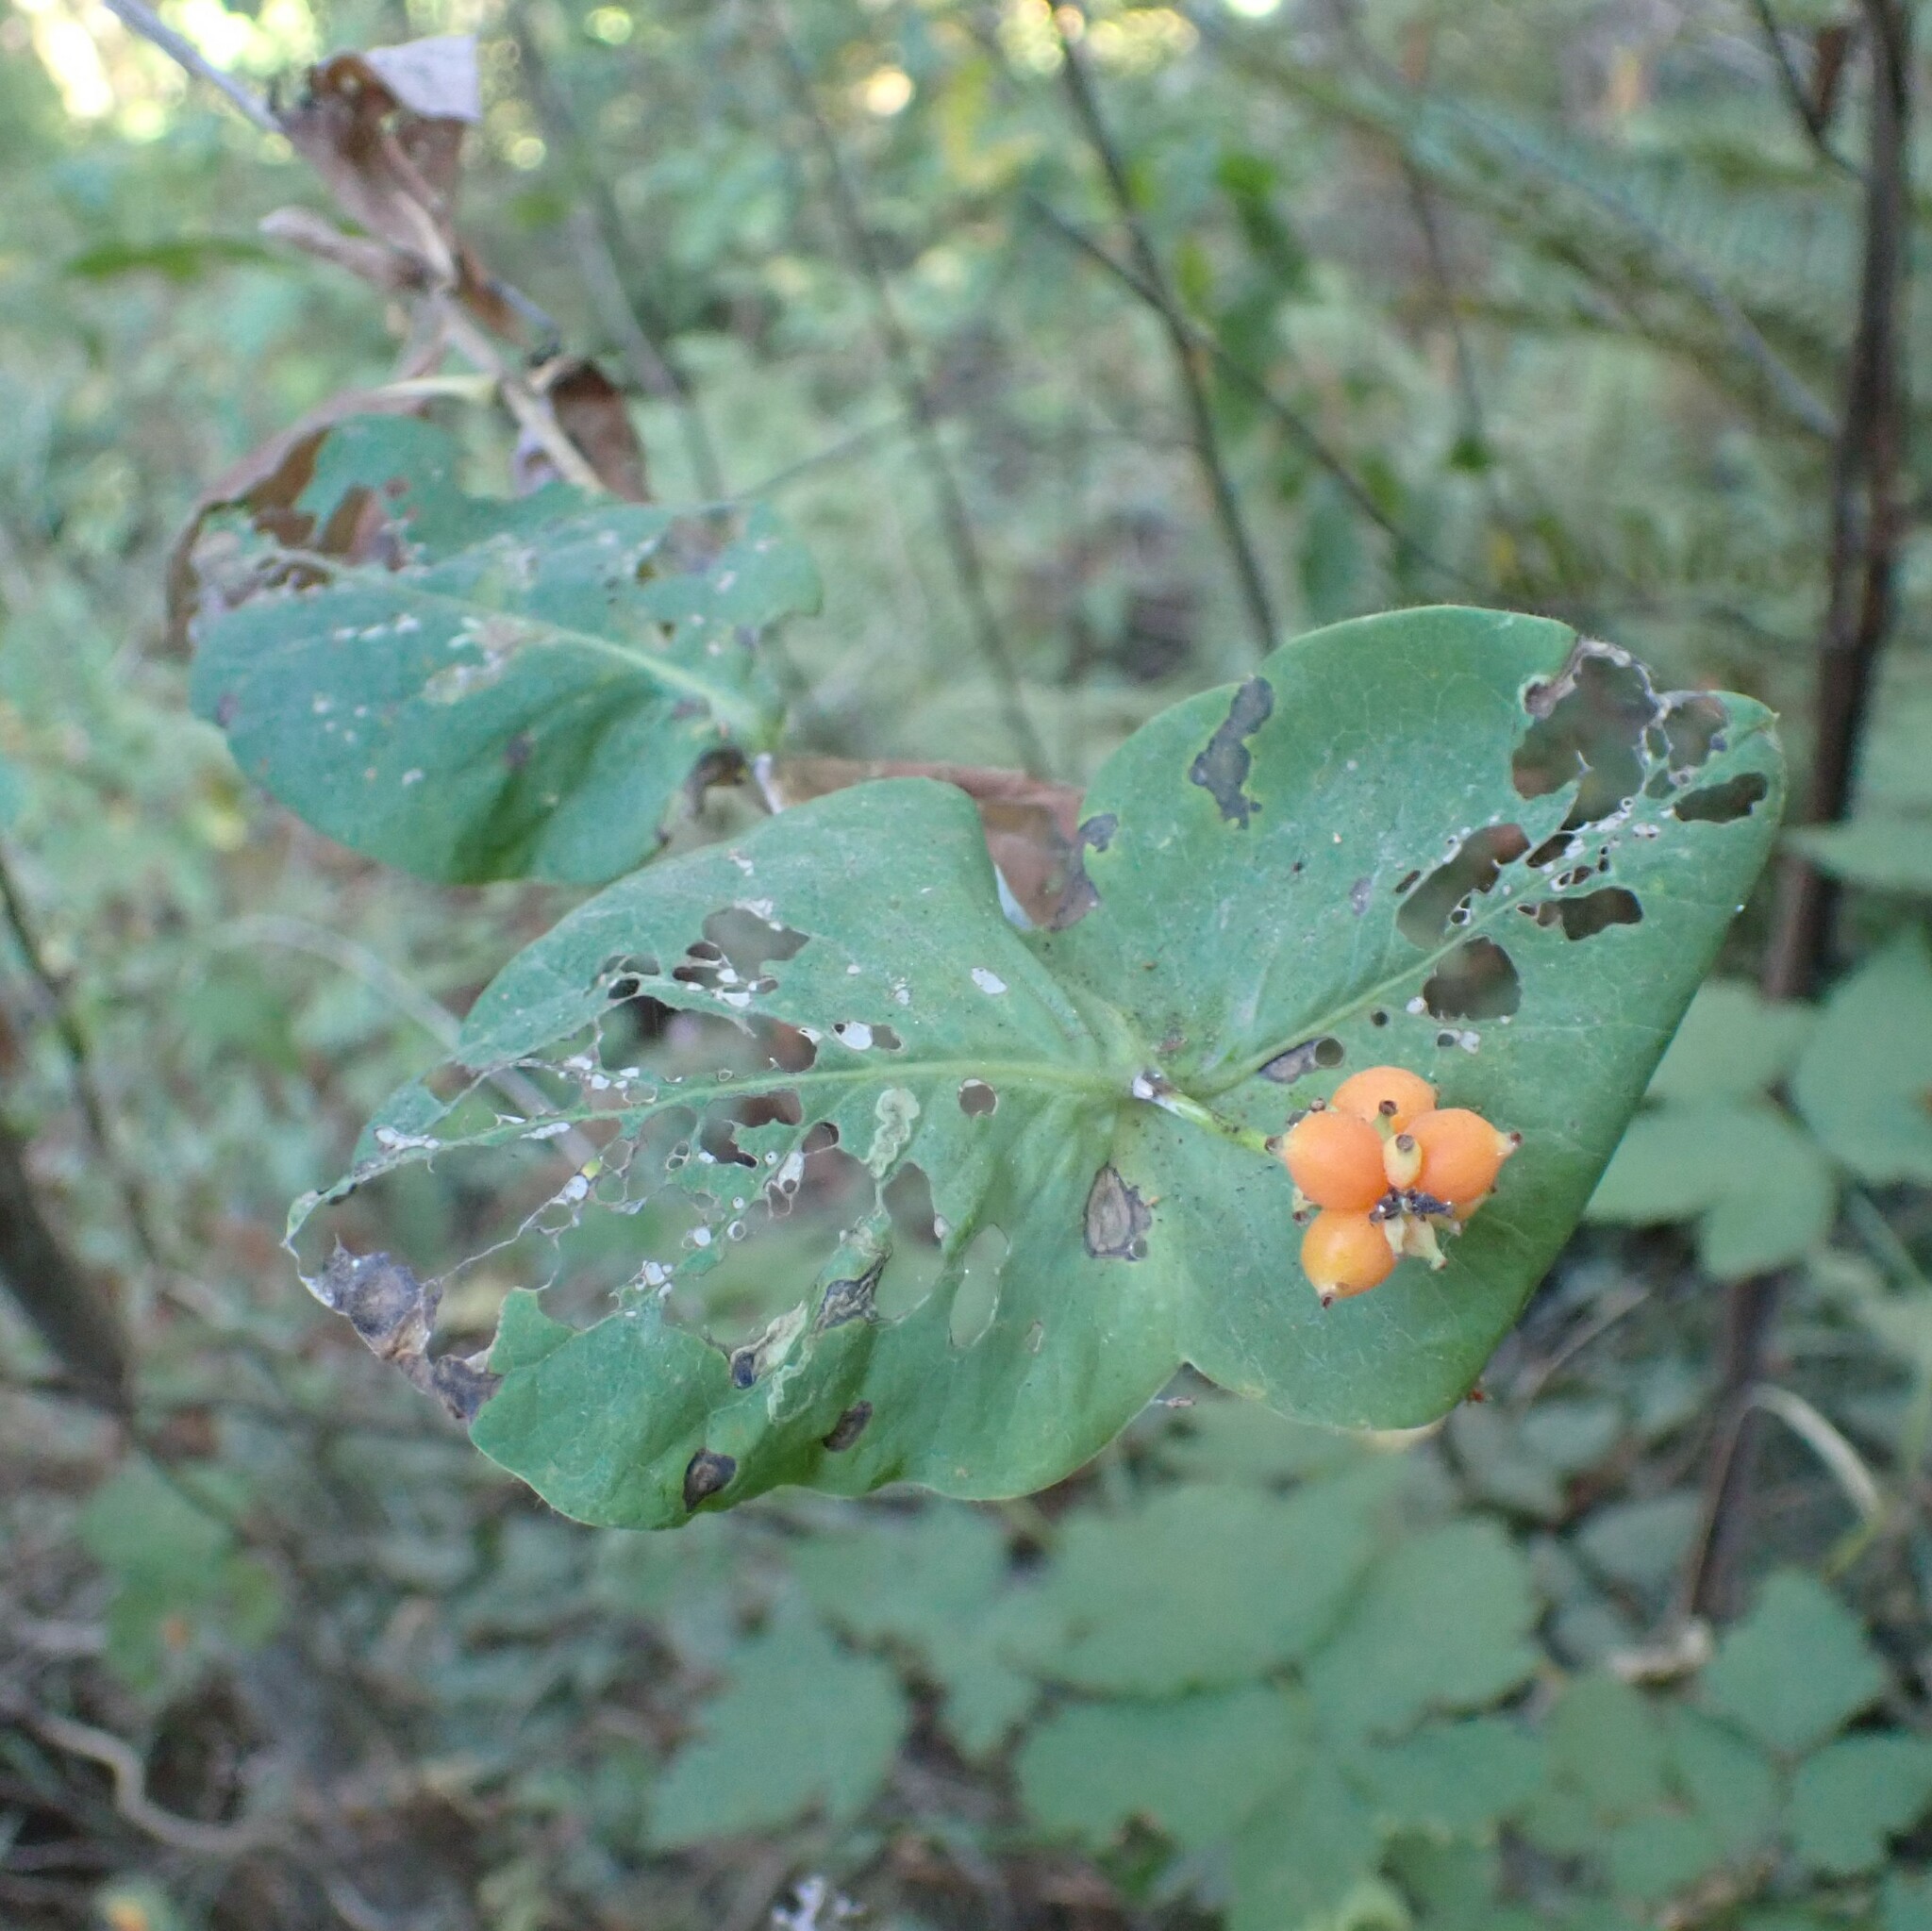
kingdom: Plantae
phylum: Tracheophyta
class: Magnoliopsida
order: Dipsacales
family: Caprifoliaceae
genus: Lonicera
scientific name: Lonicera ciliosa
